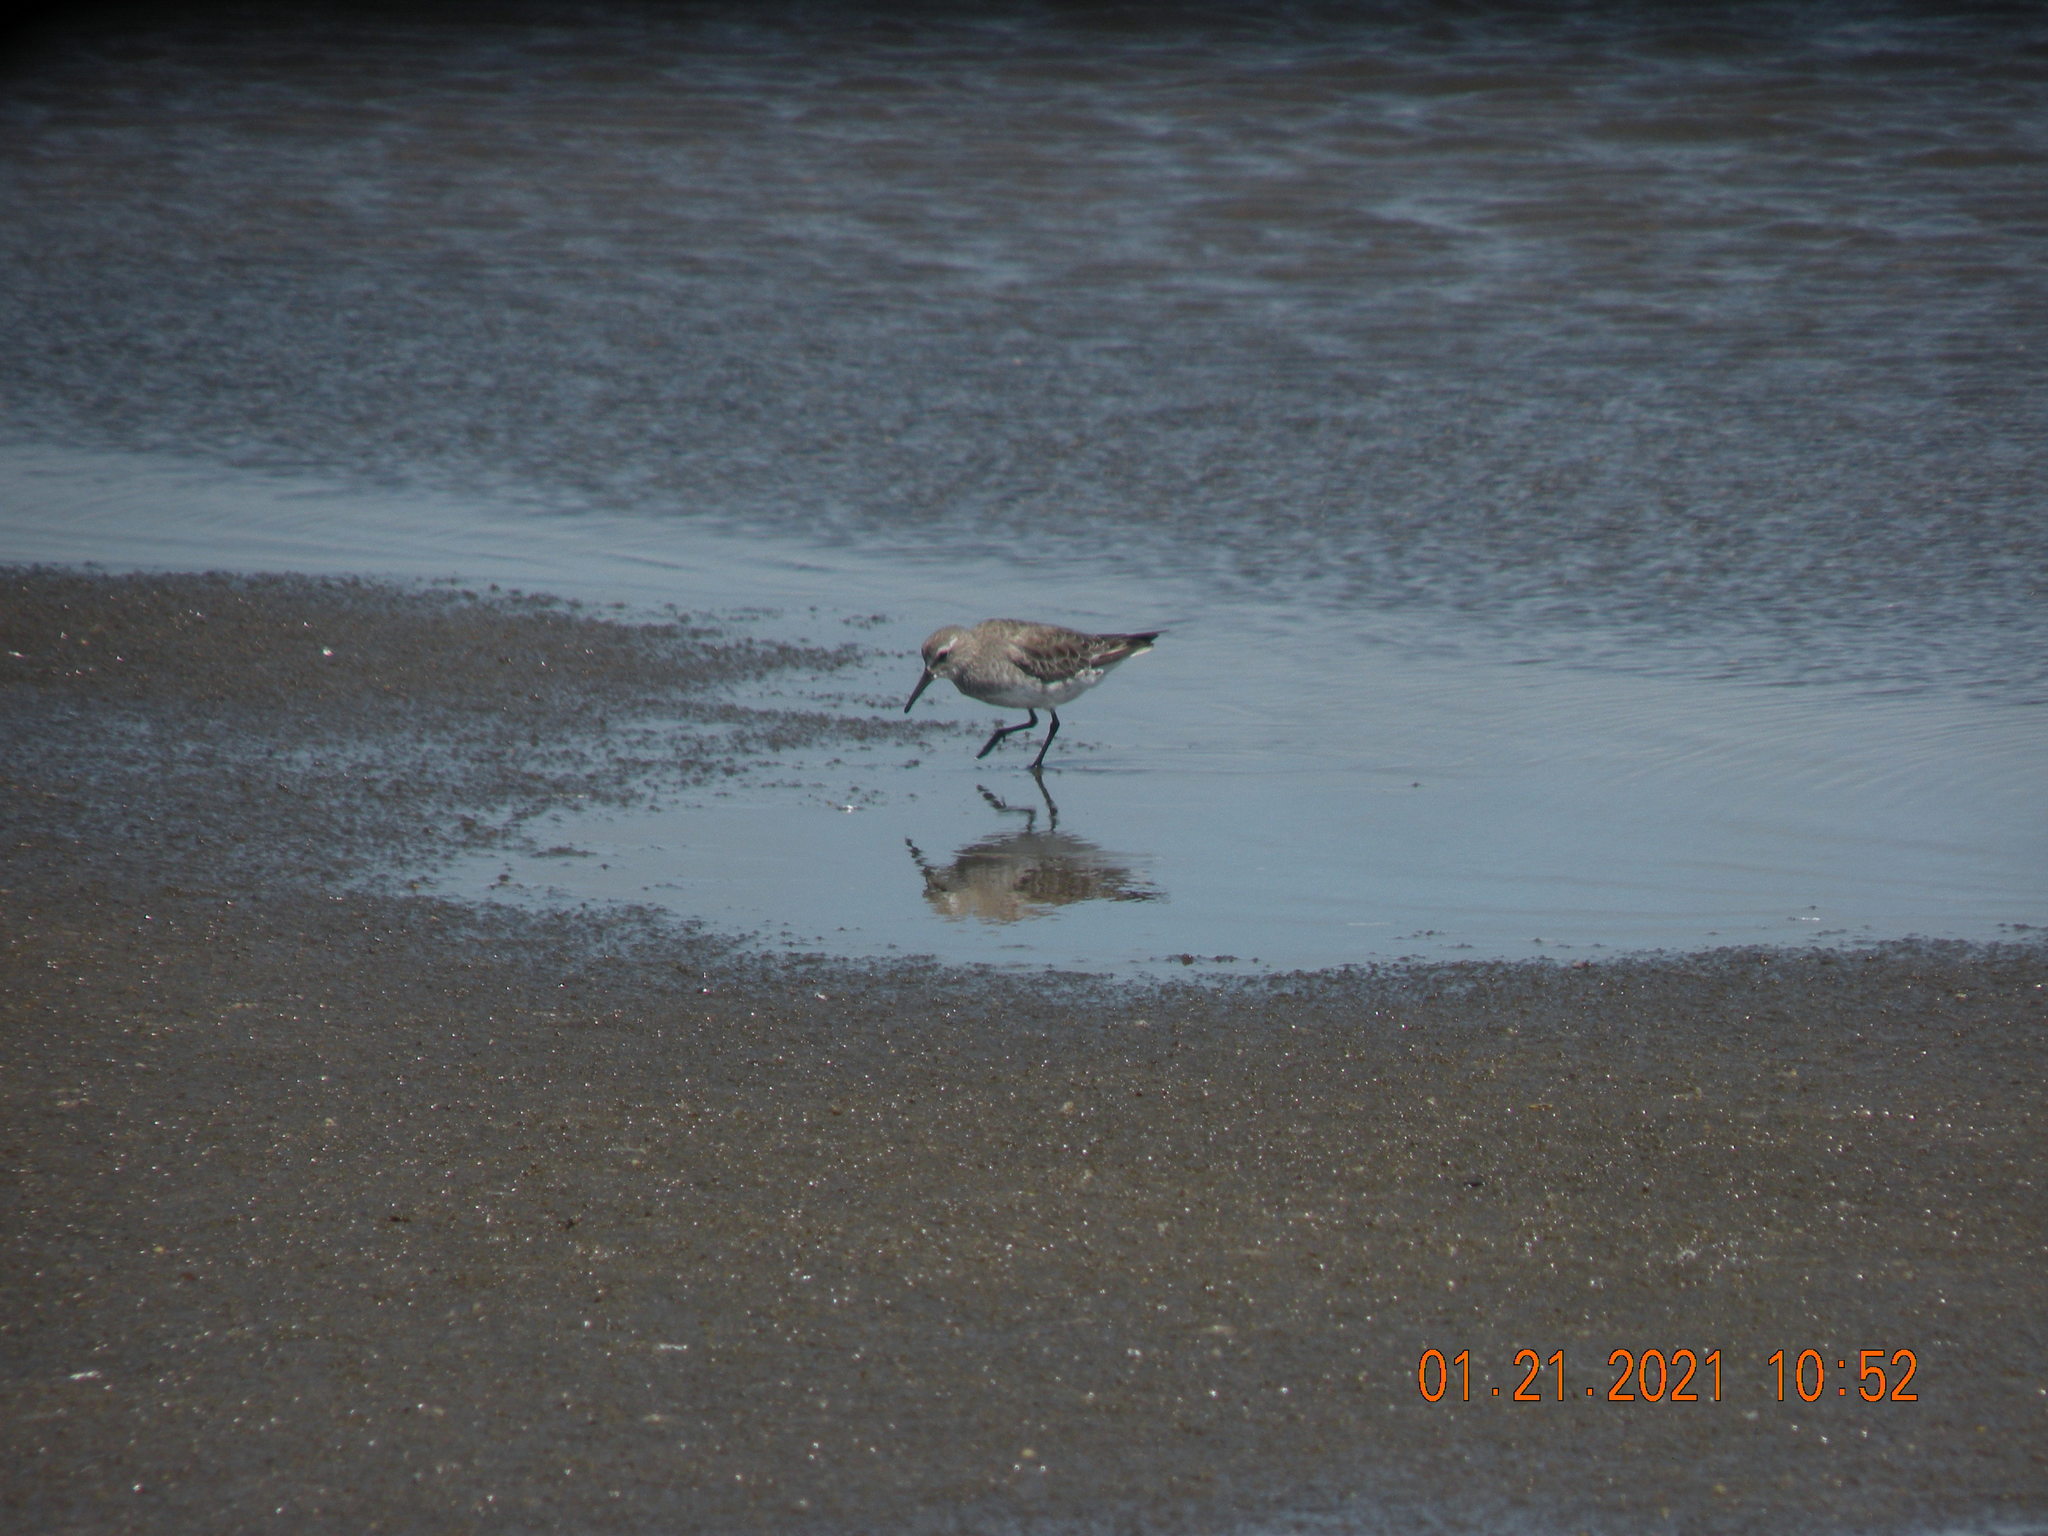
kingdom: Animalia
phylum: Chordata
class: Aves
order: Charadriiformes
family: Scolopacidae
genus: Calidris
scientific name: Calidris fuscicollis
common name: White-rumped sandpiper
